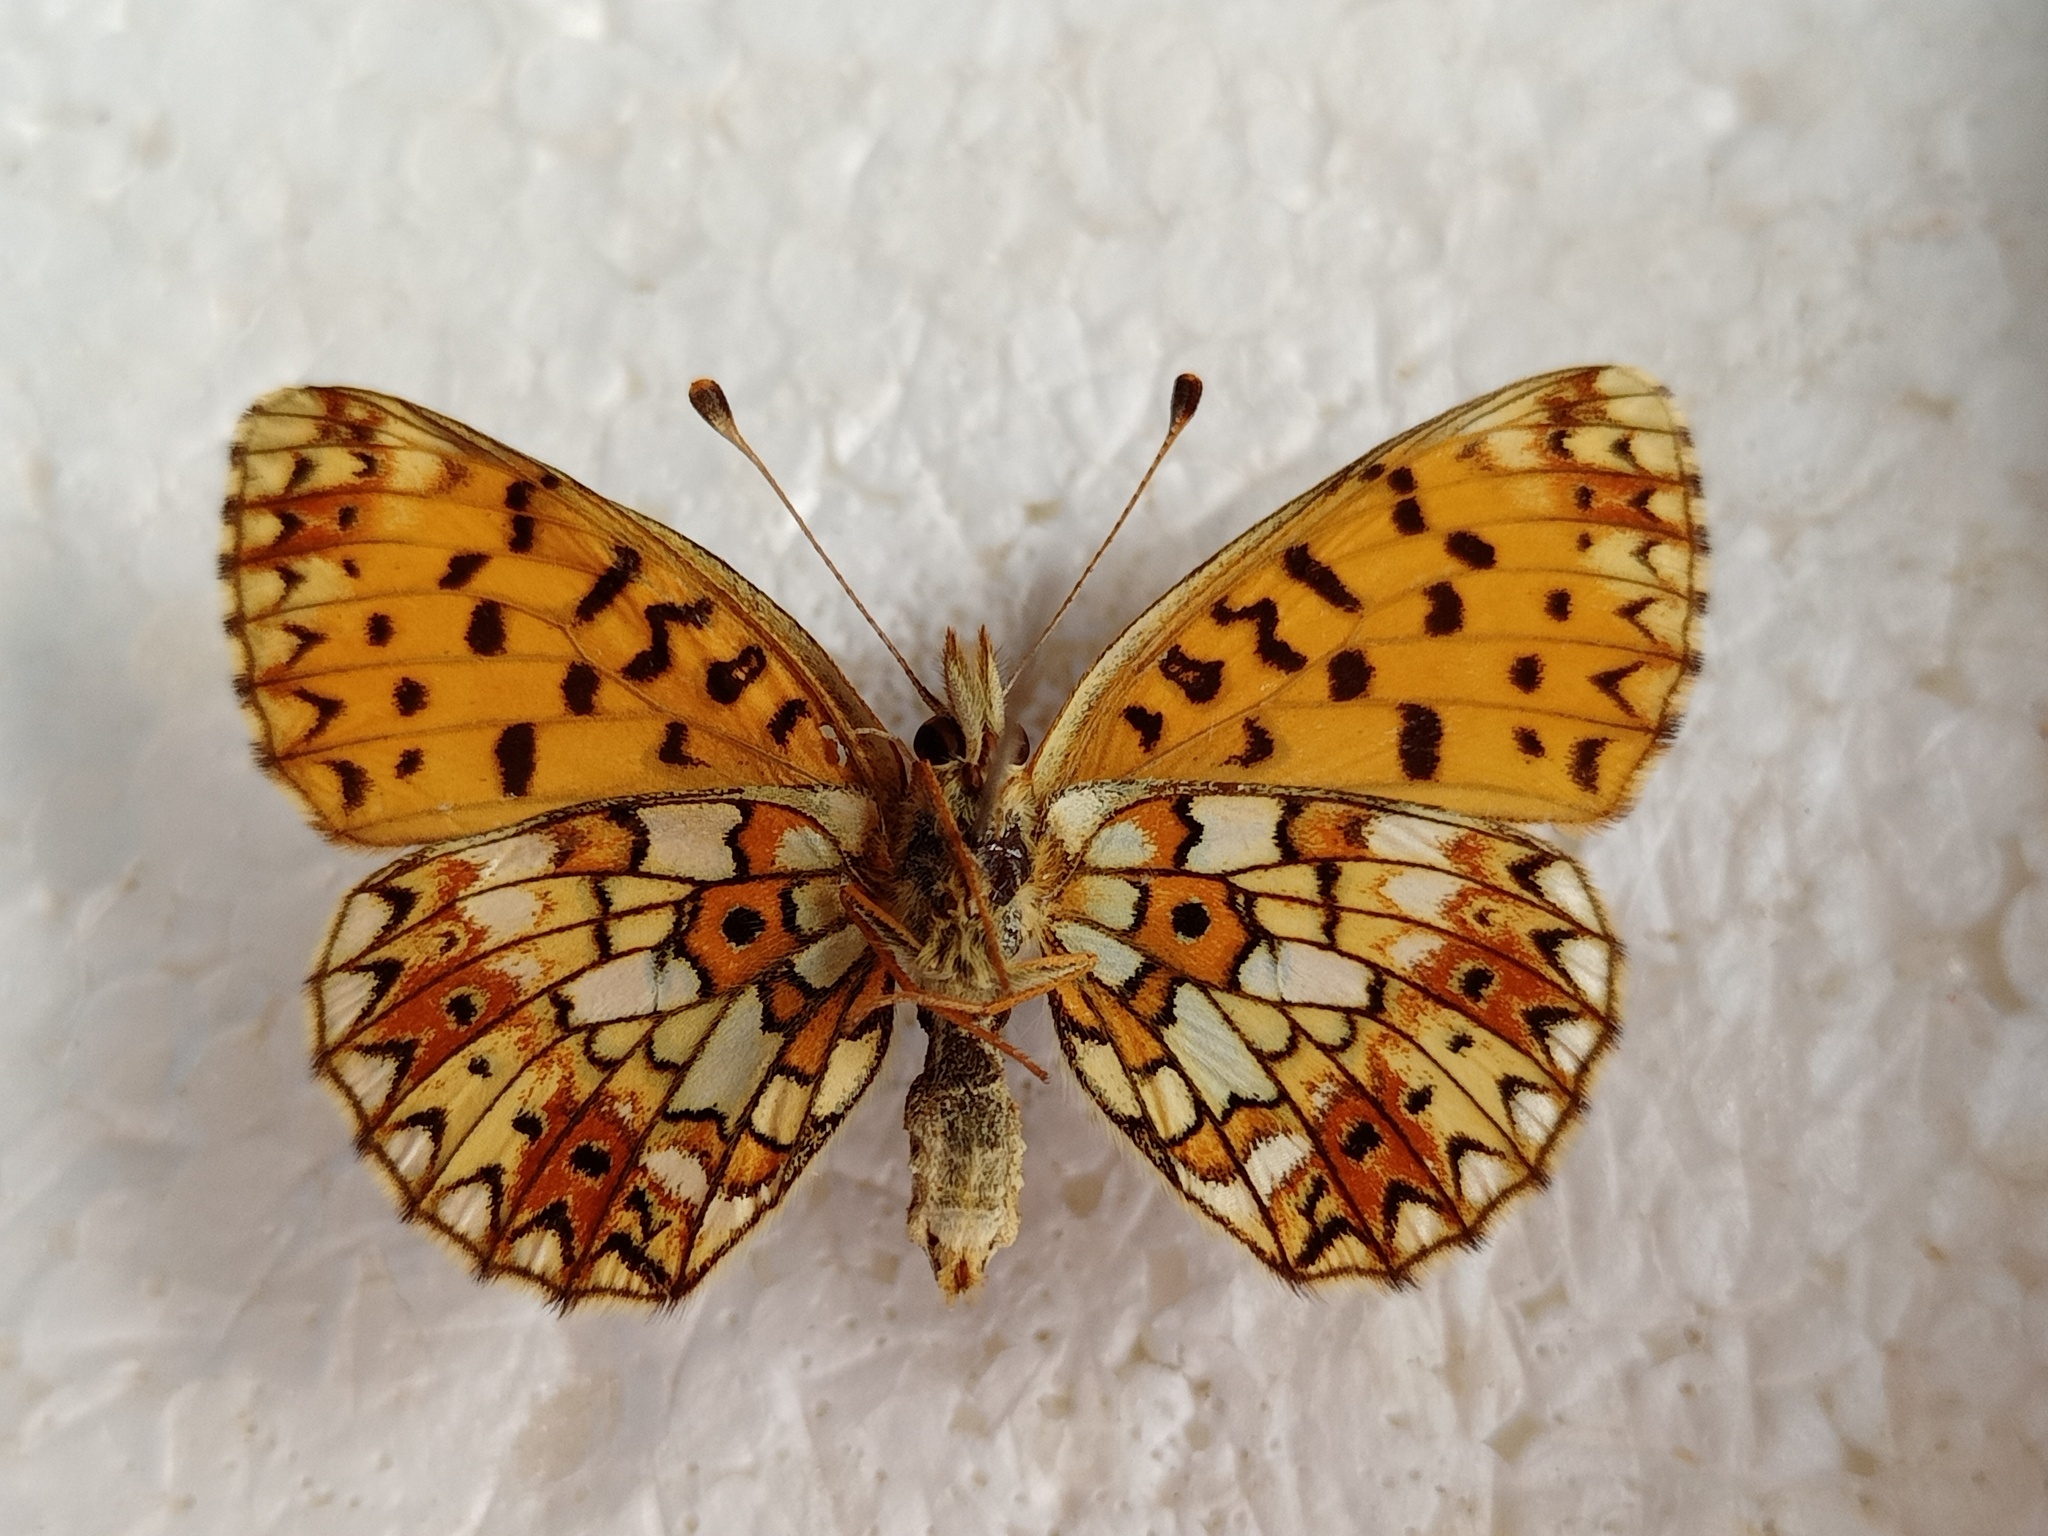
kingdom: Animalia
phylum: Arthropoda
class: Insecta
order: Lepidoptera
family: Nymphalidae
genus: Boloria
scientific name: Boloria selene
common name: Small pearl-bordered fritillary
